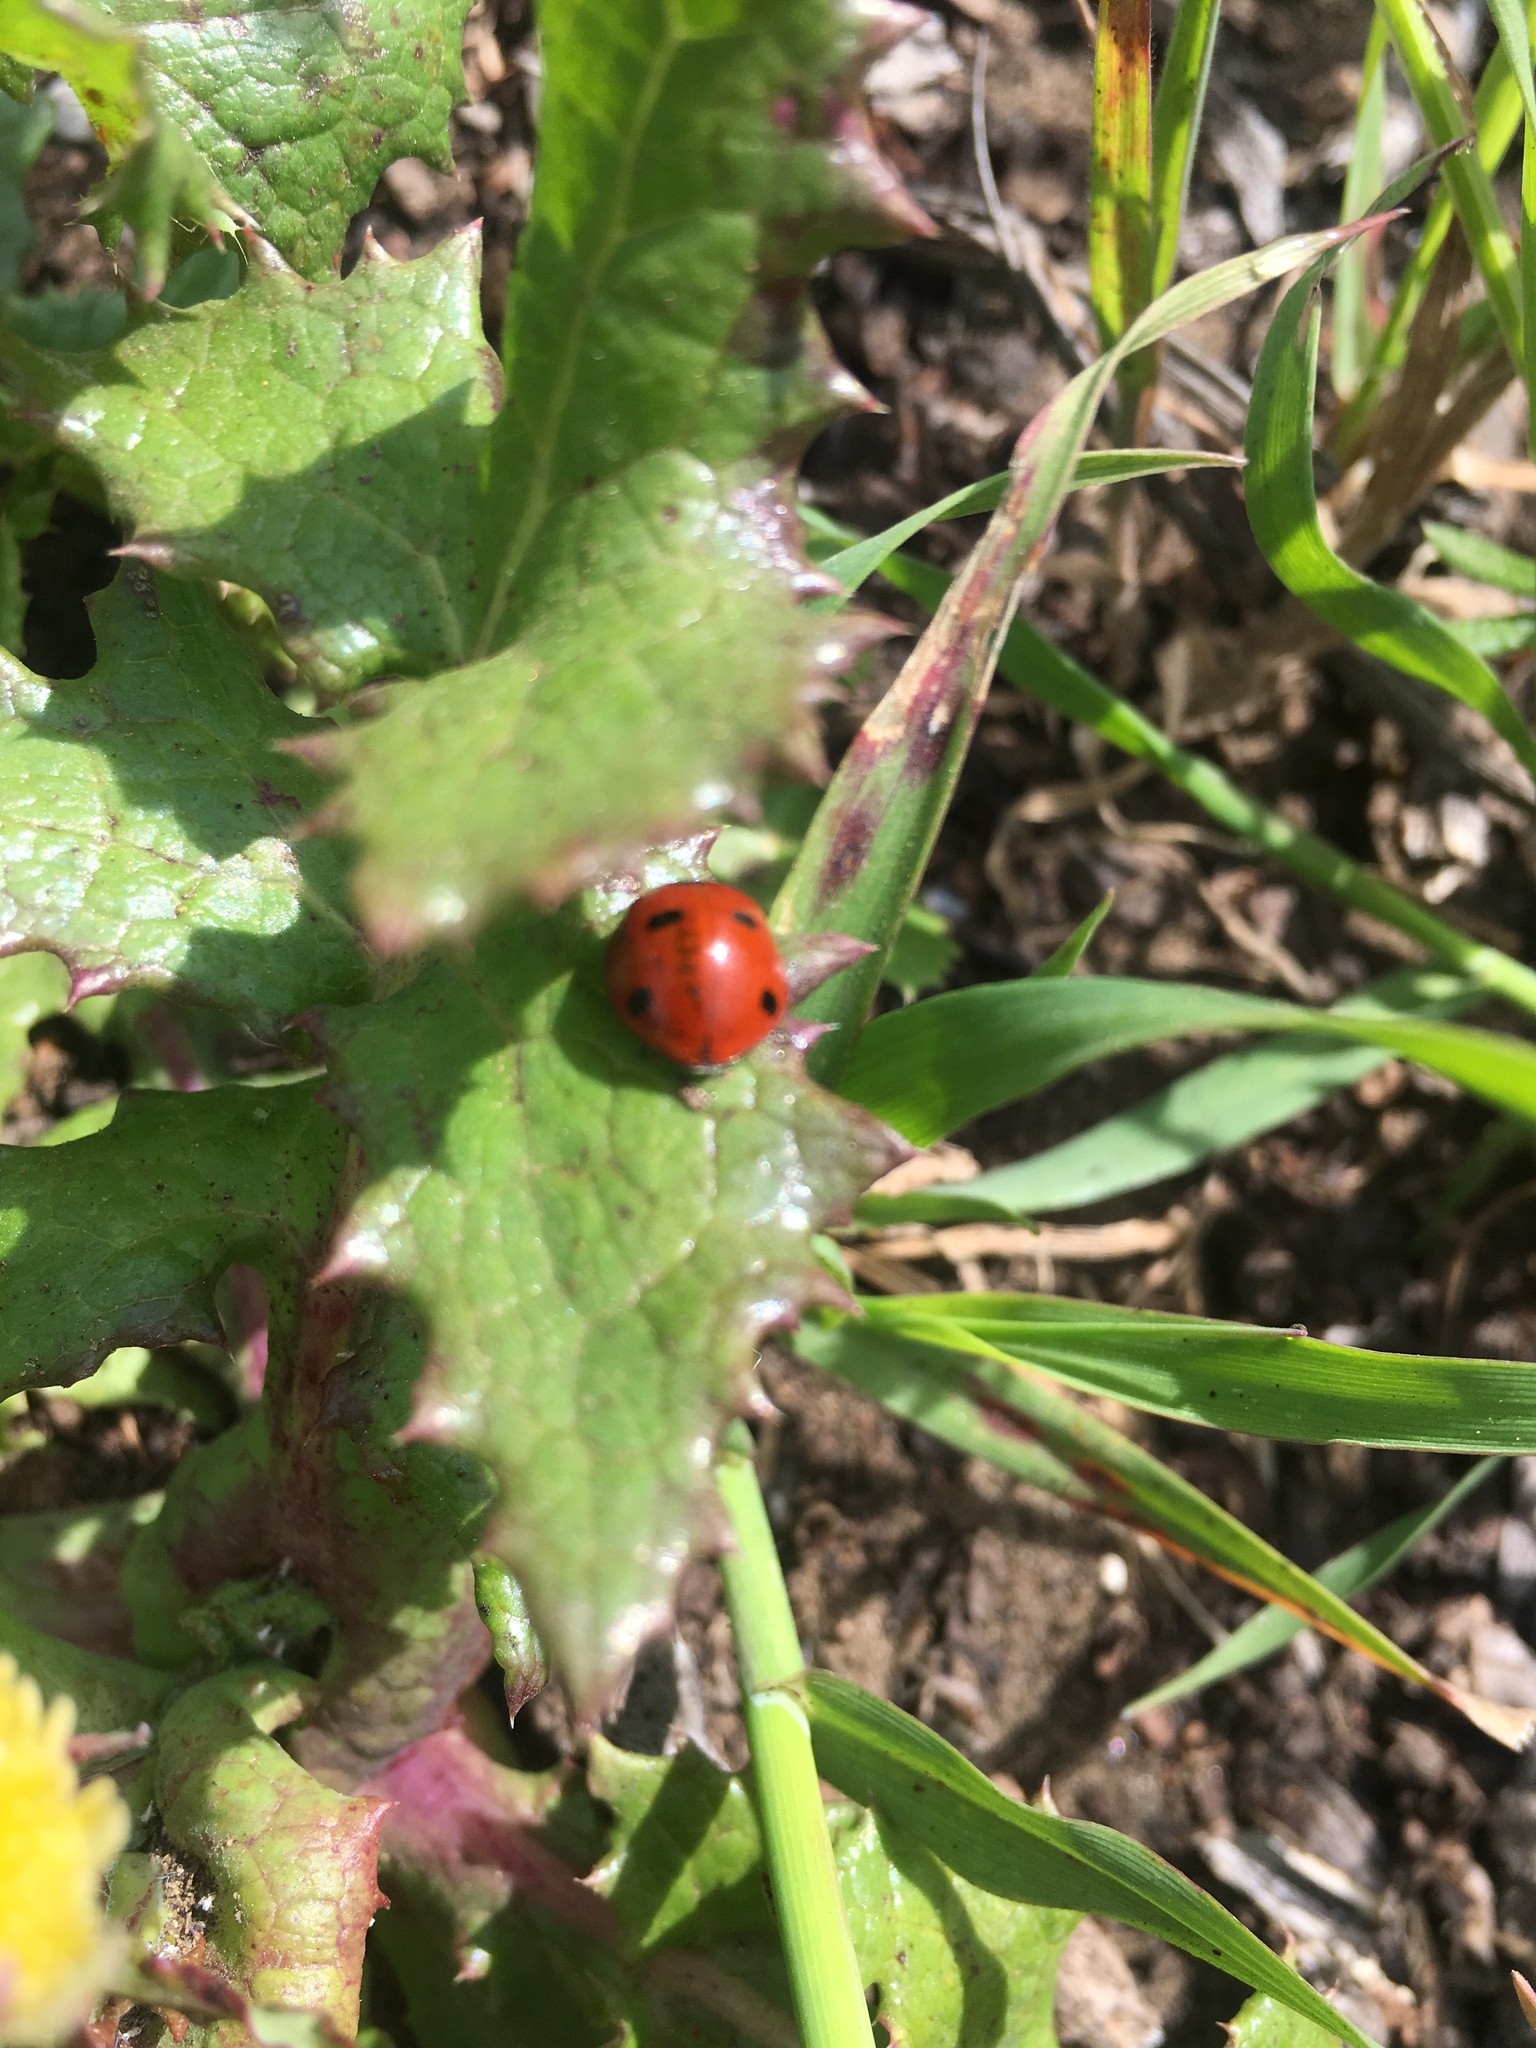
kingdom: Animalia
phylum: Arthropoda
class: Insecta
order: Coleoptera
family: Coccinellidae
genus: Coccinella
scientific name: Coccinella septempunctata
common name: Sevenspotted lady beetle
